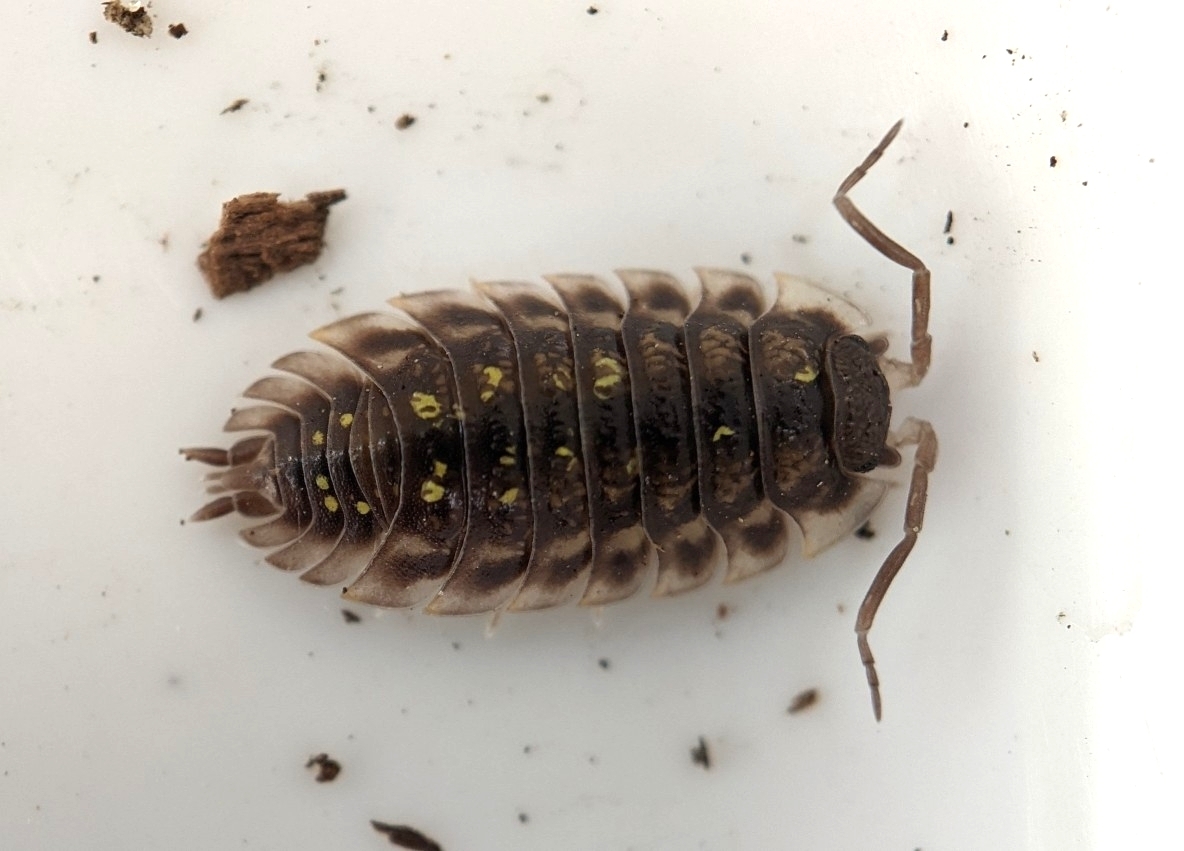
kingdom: Animalia
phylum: Arthropoda
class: Malacostraca
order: Isopoda
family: Oniscidae
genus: Oniscus
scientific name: Oniscus asellus
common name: Common shiny woodlouse
